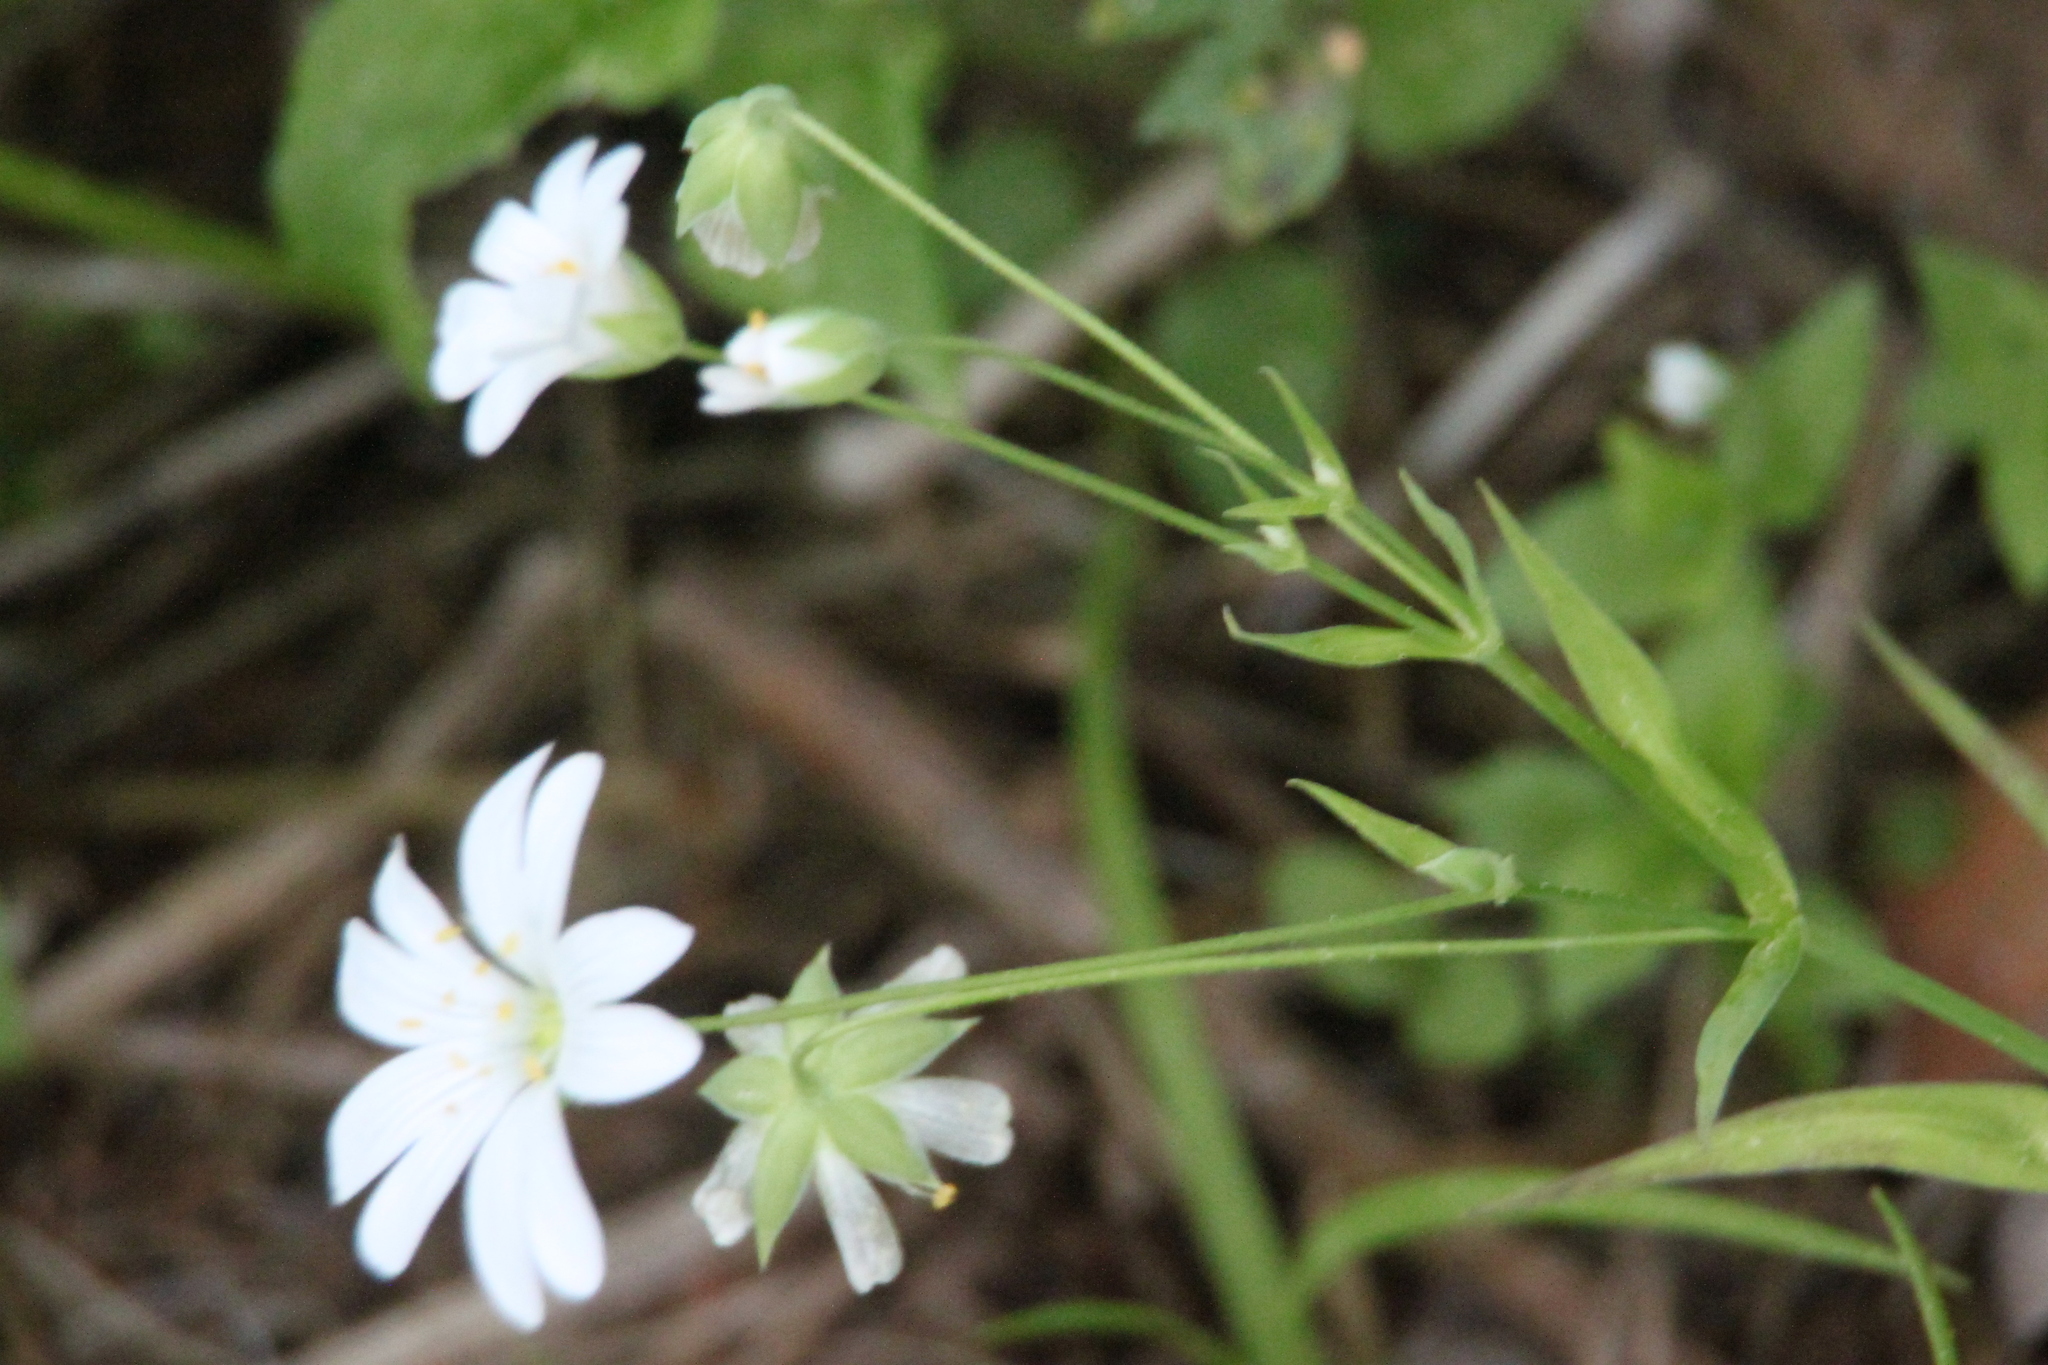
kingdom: Plantae
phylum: Tracheophyta
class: Magnoliopsida
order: Caryophyllales
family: Caryophyllaceae
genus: Rabelera
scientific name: Rabelera holostea
